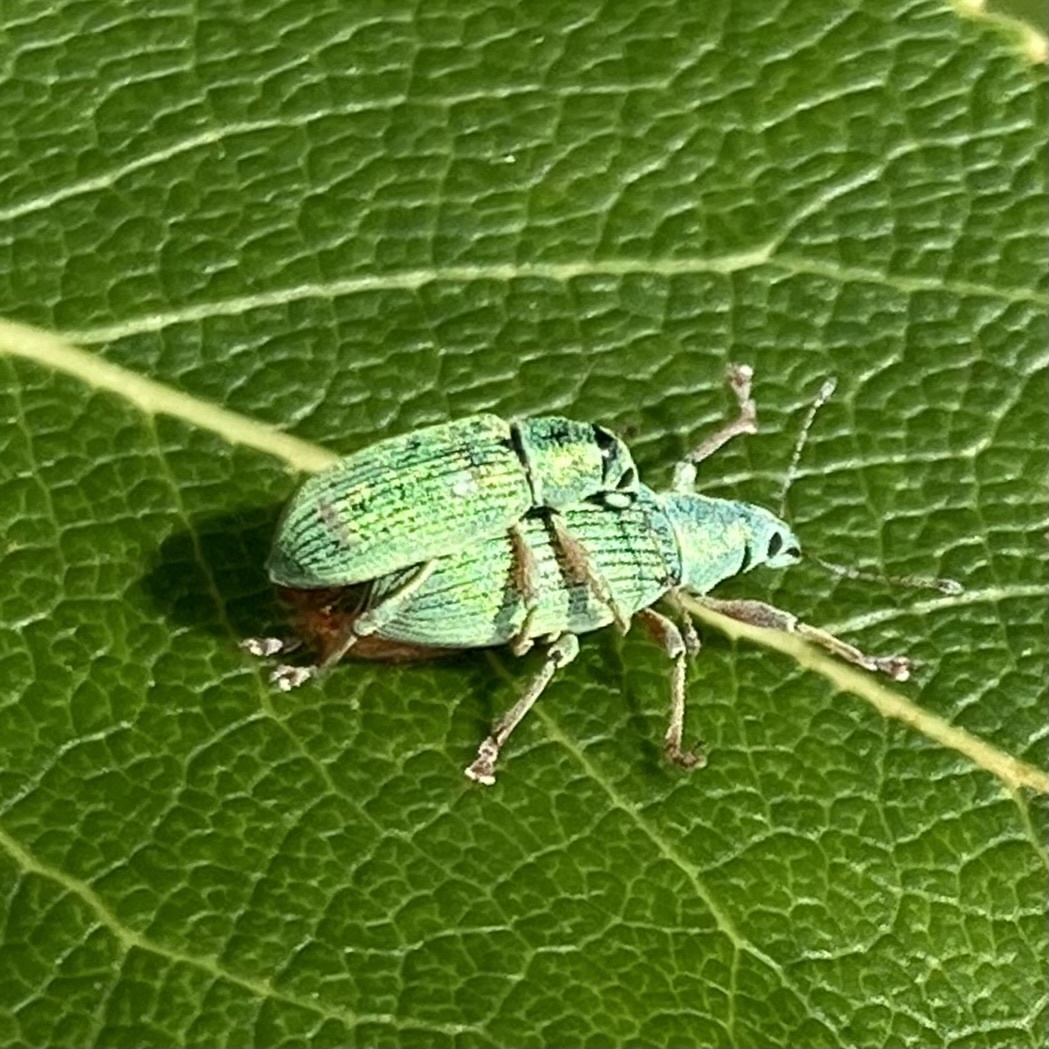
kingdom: Animalia
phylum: Arthropoda
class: Insecta
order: Coleoptera
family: Curculionidae
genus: Polydrusus
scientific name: Polydrusus formosus
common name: Weevil
